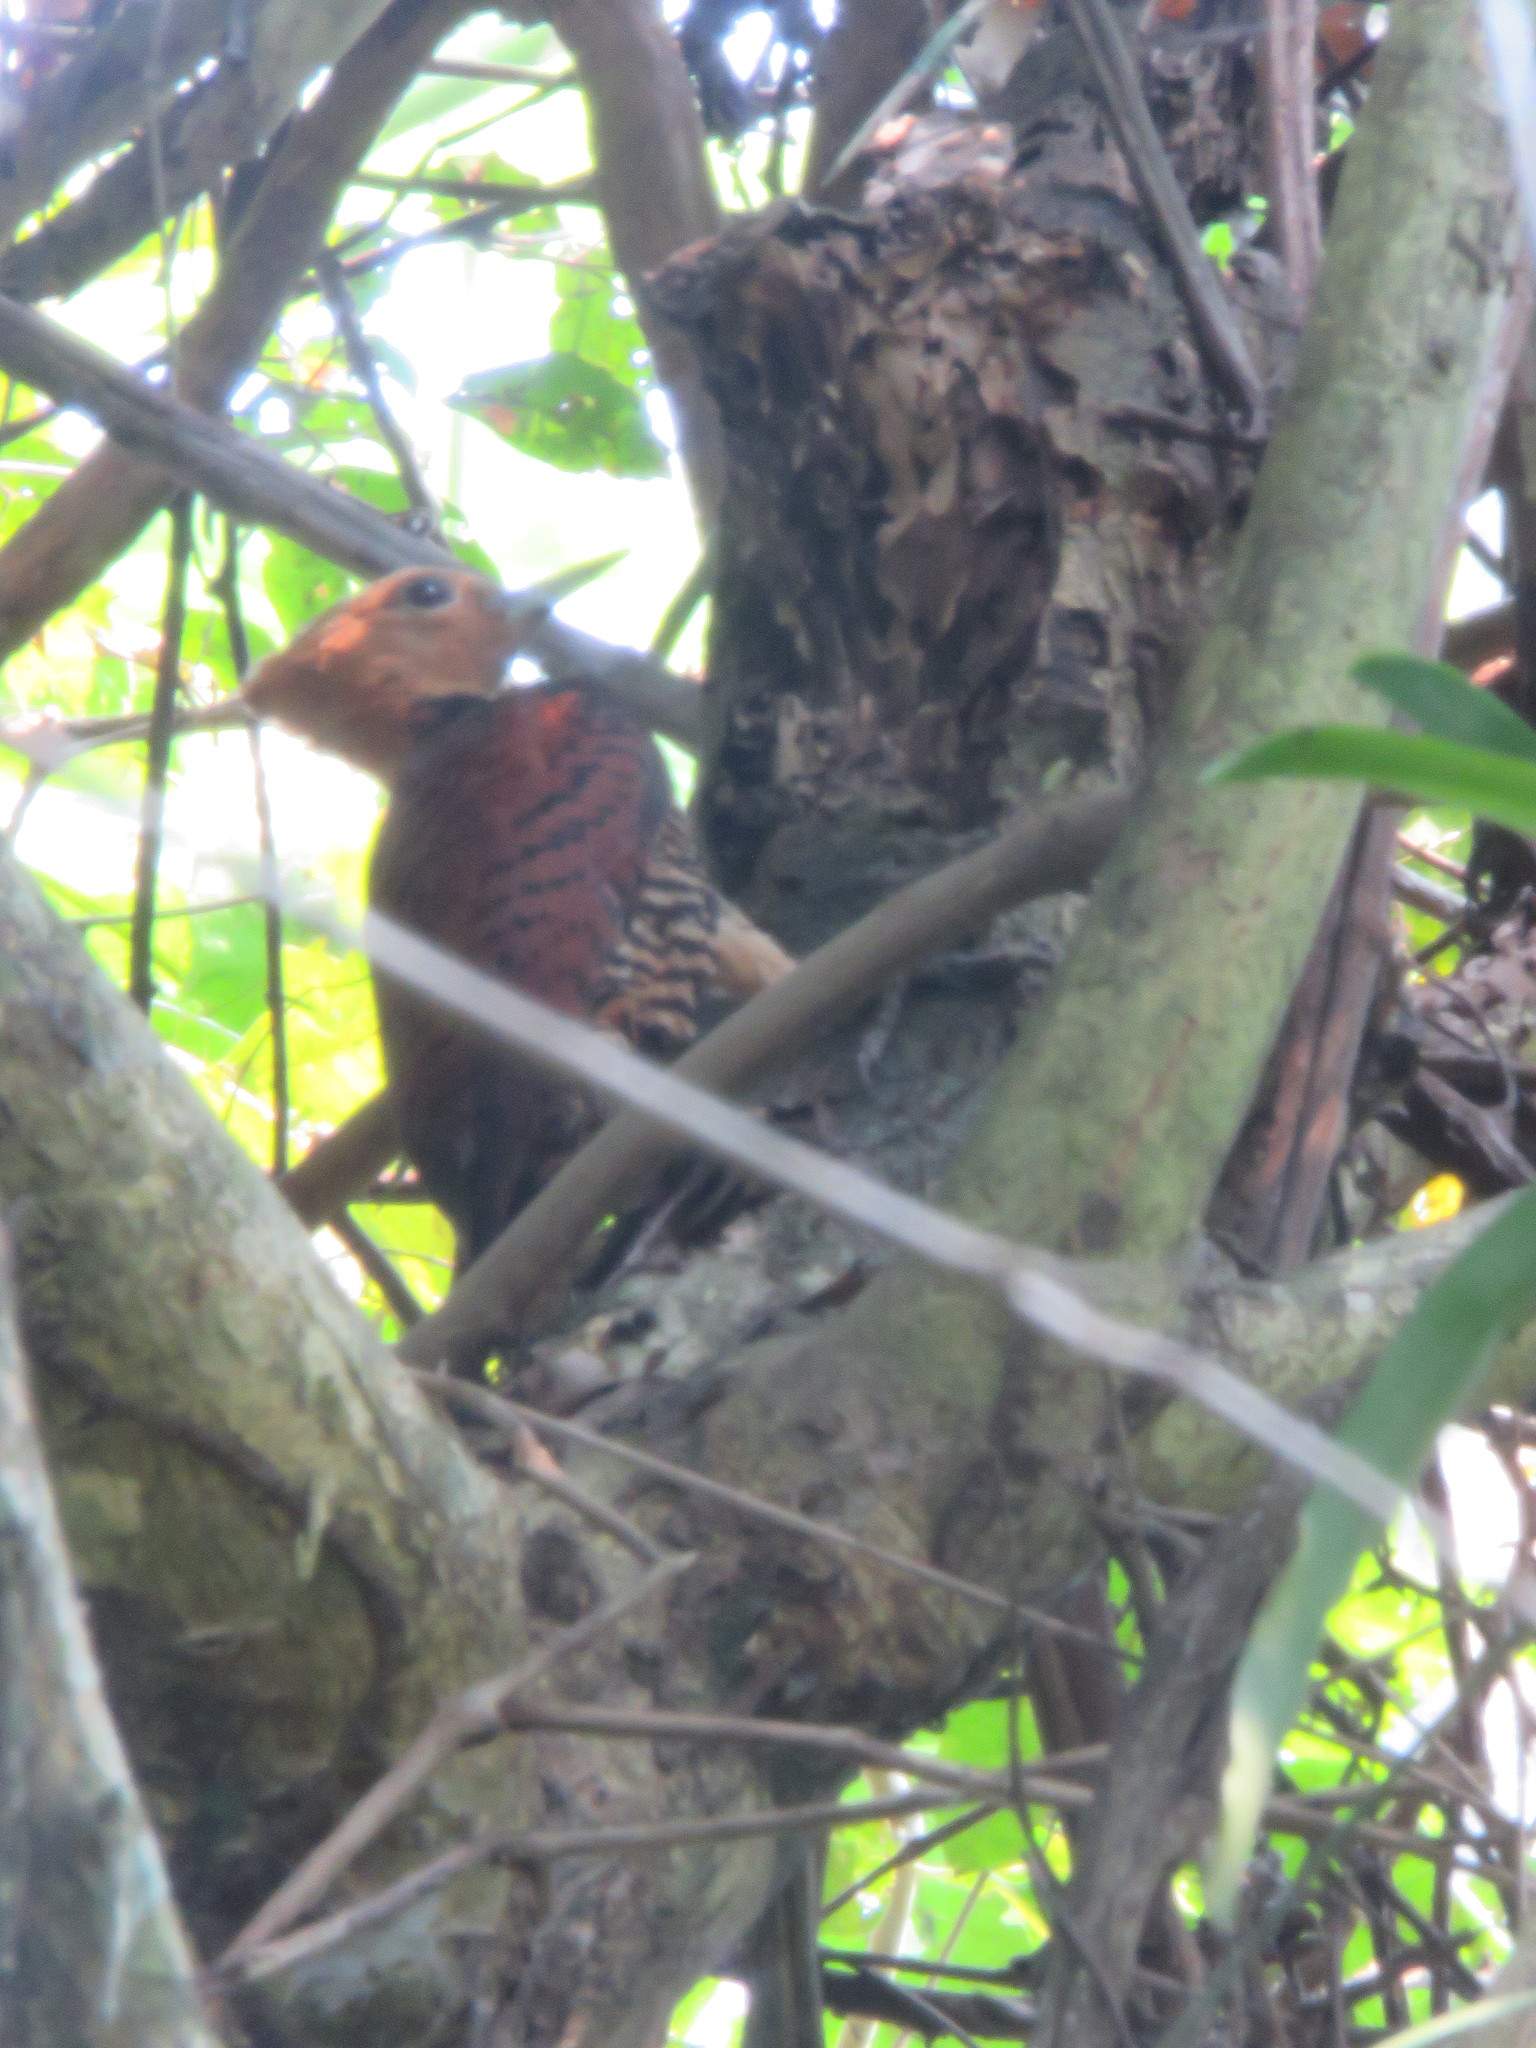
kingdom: Animalia
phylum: Chordata
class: Aves
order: Piciformes
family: Picidae
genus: Celeus
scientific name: Celeus torquatus
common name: Ringed woodpecker
